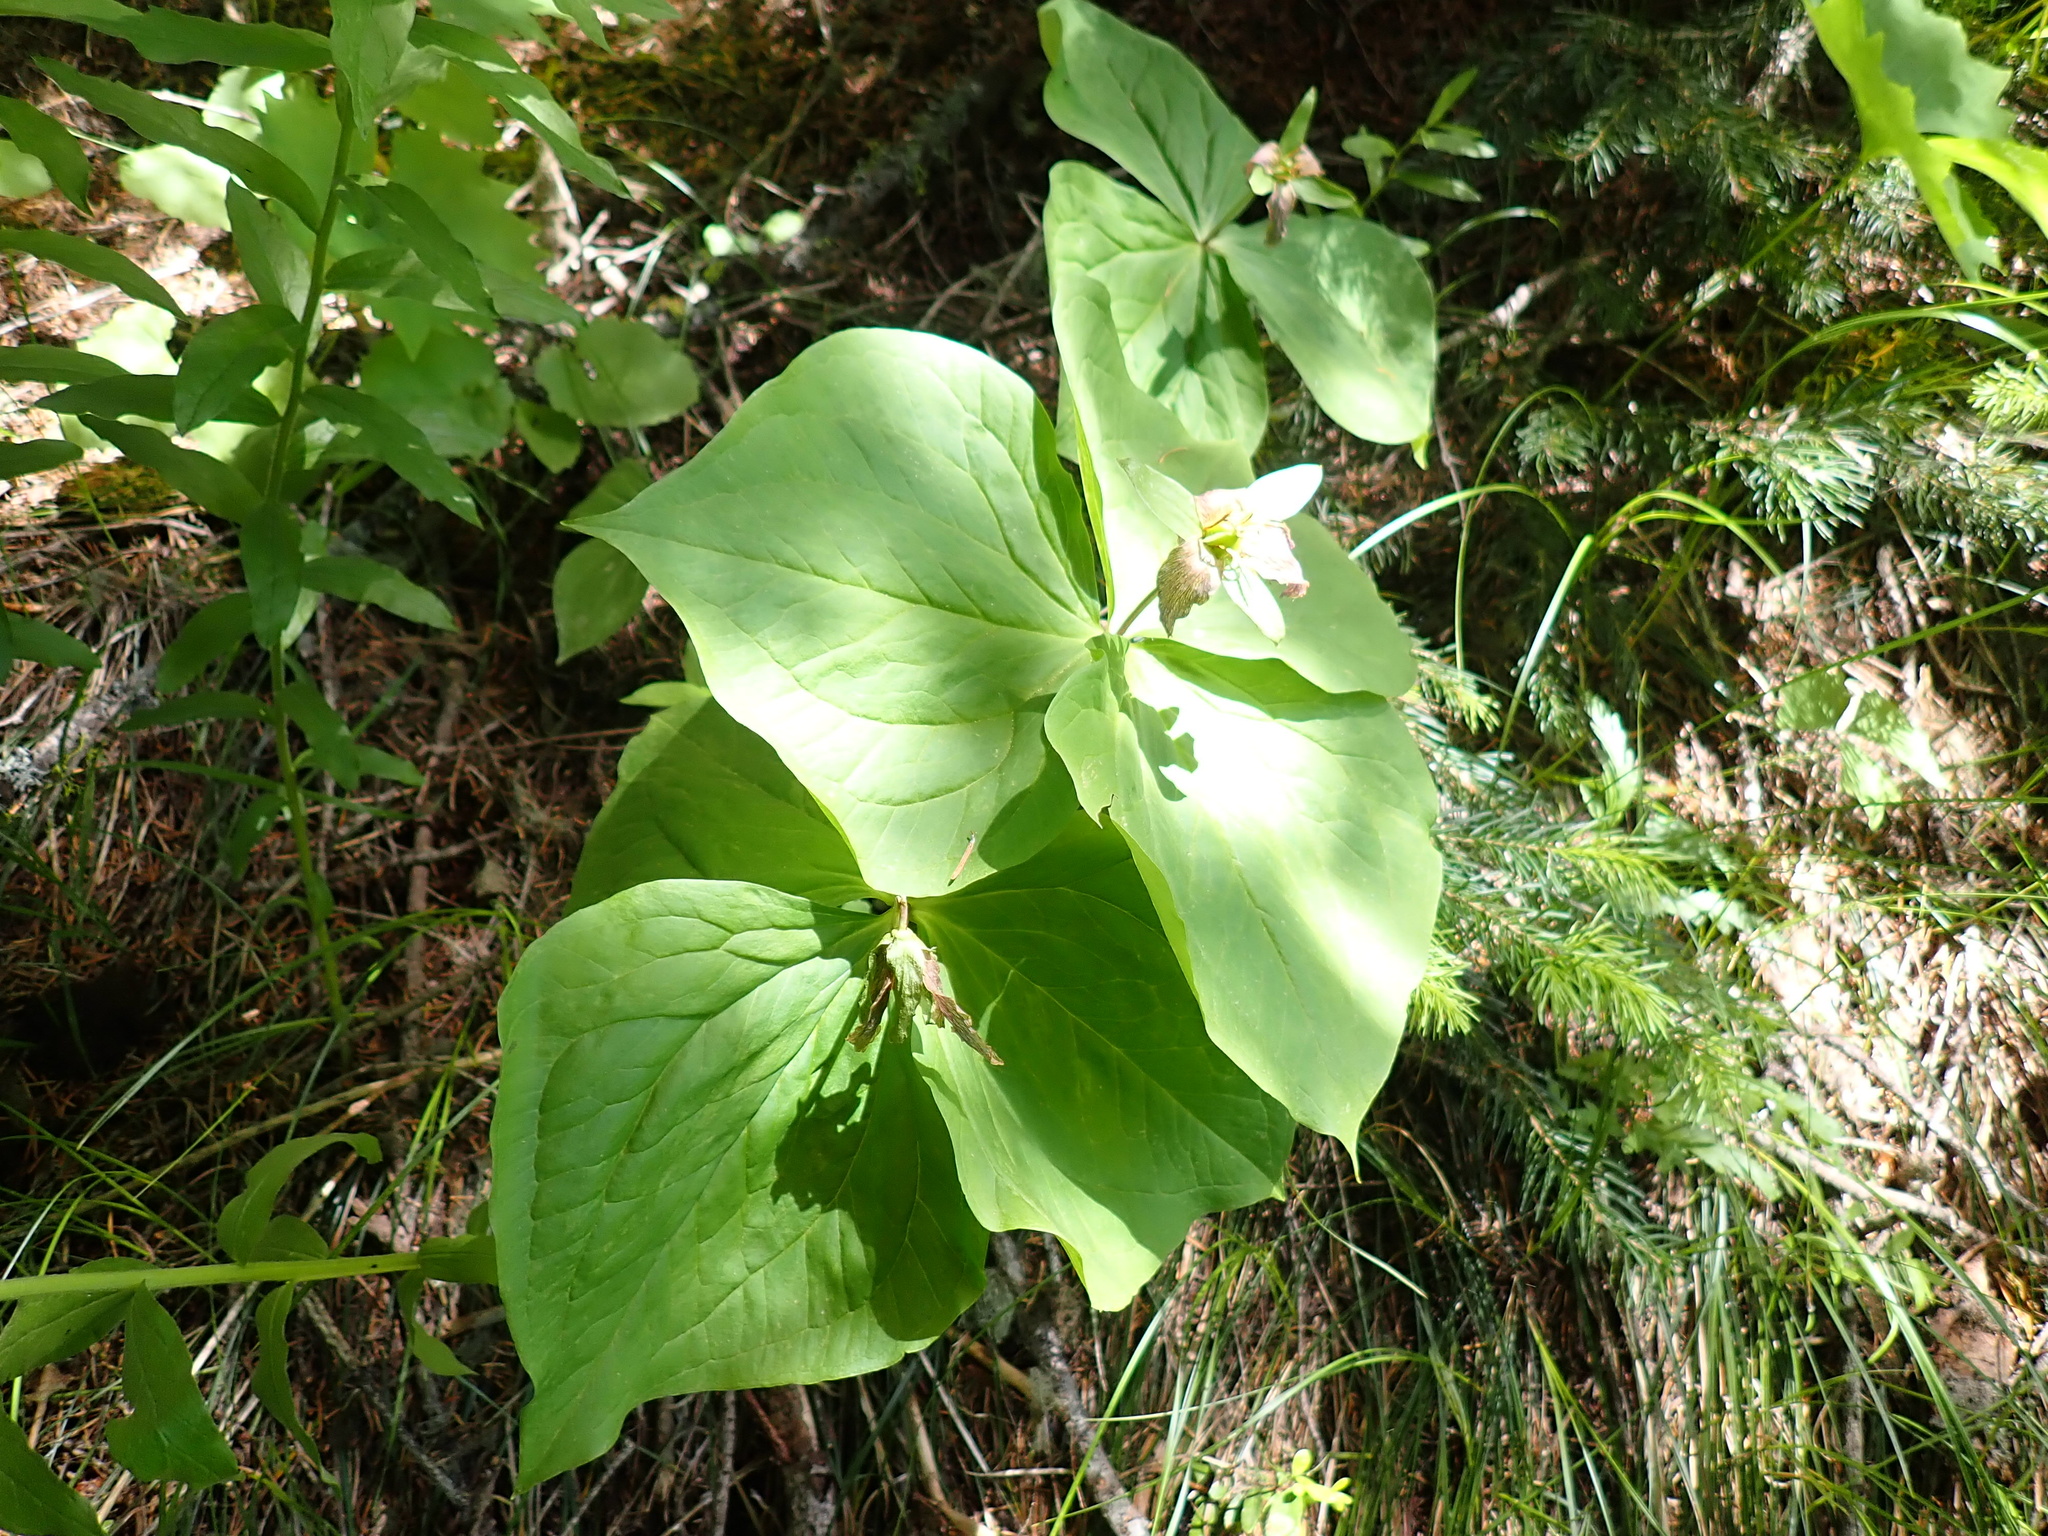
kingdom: Plantae
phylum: Tracheophyta
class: Liliopsida
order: Liliales
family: Melanthiaceae
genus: Trillium
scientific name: Trillium ovatum
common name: Pacific trillium
